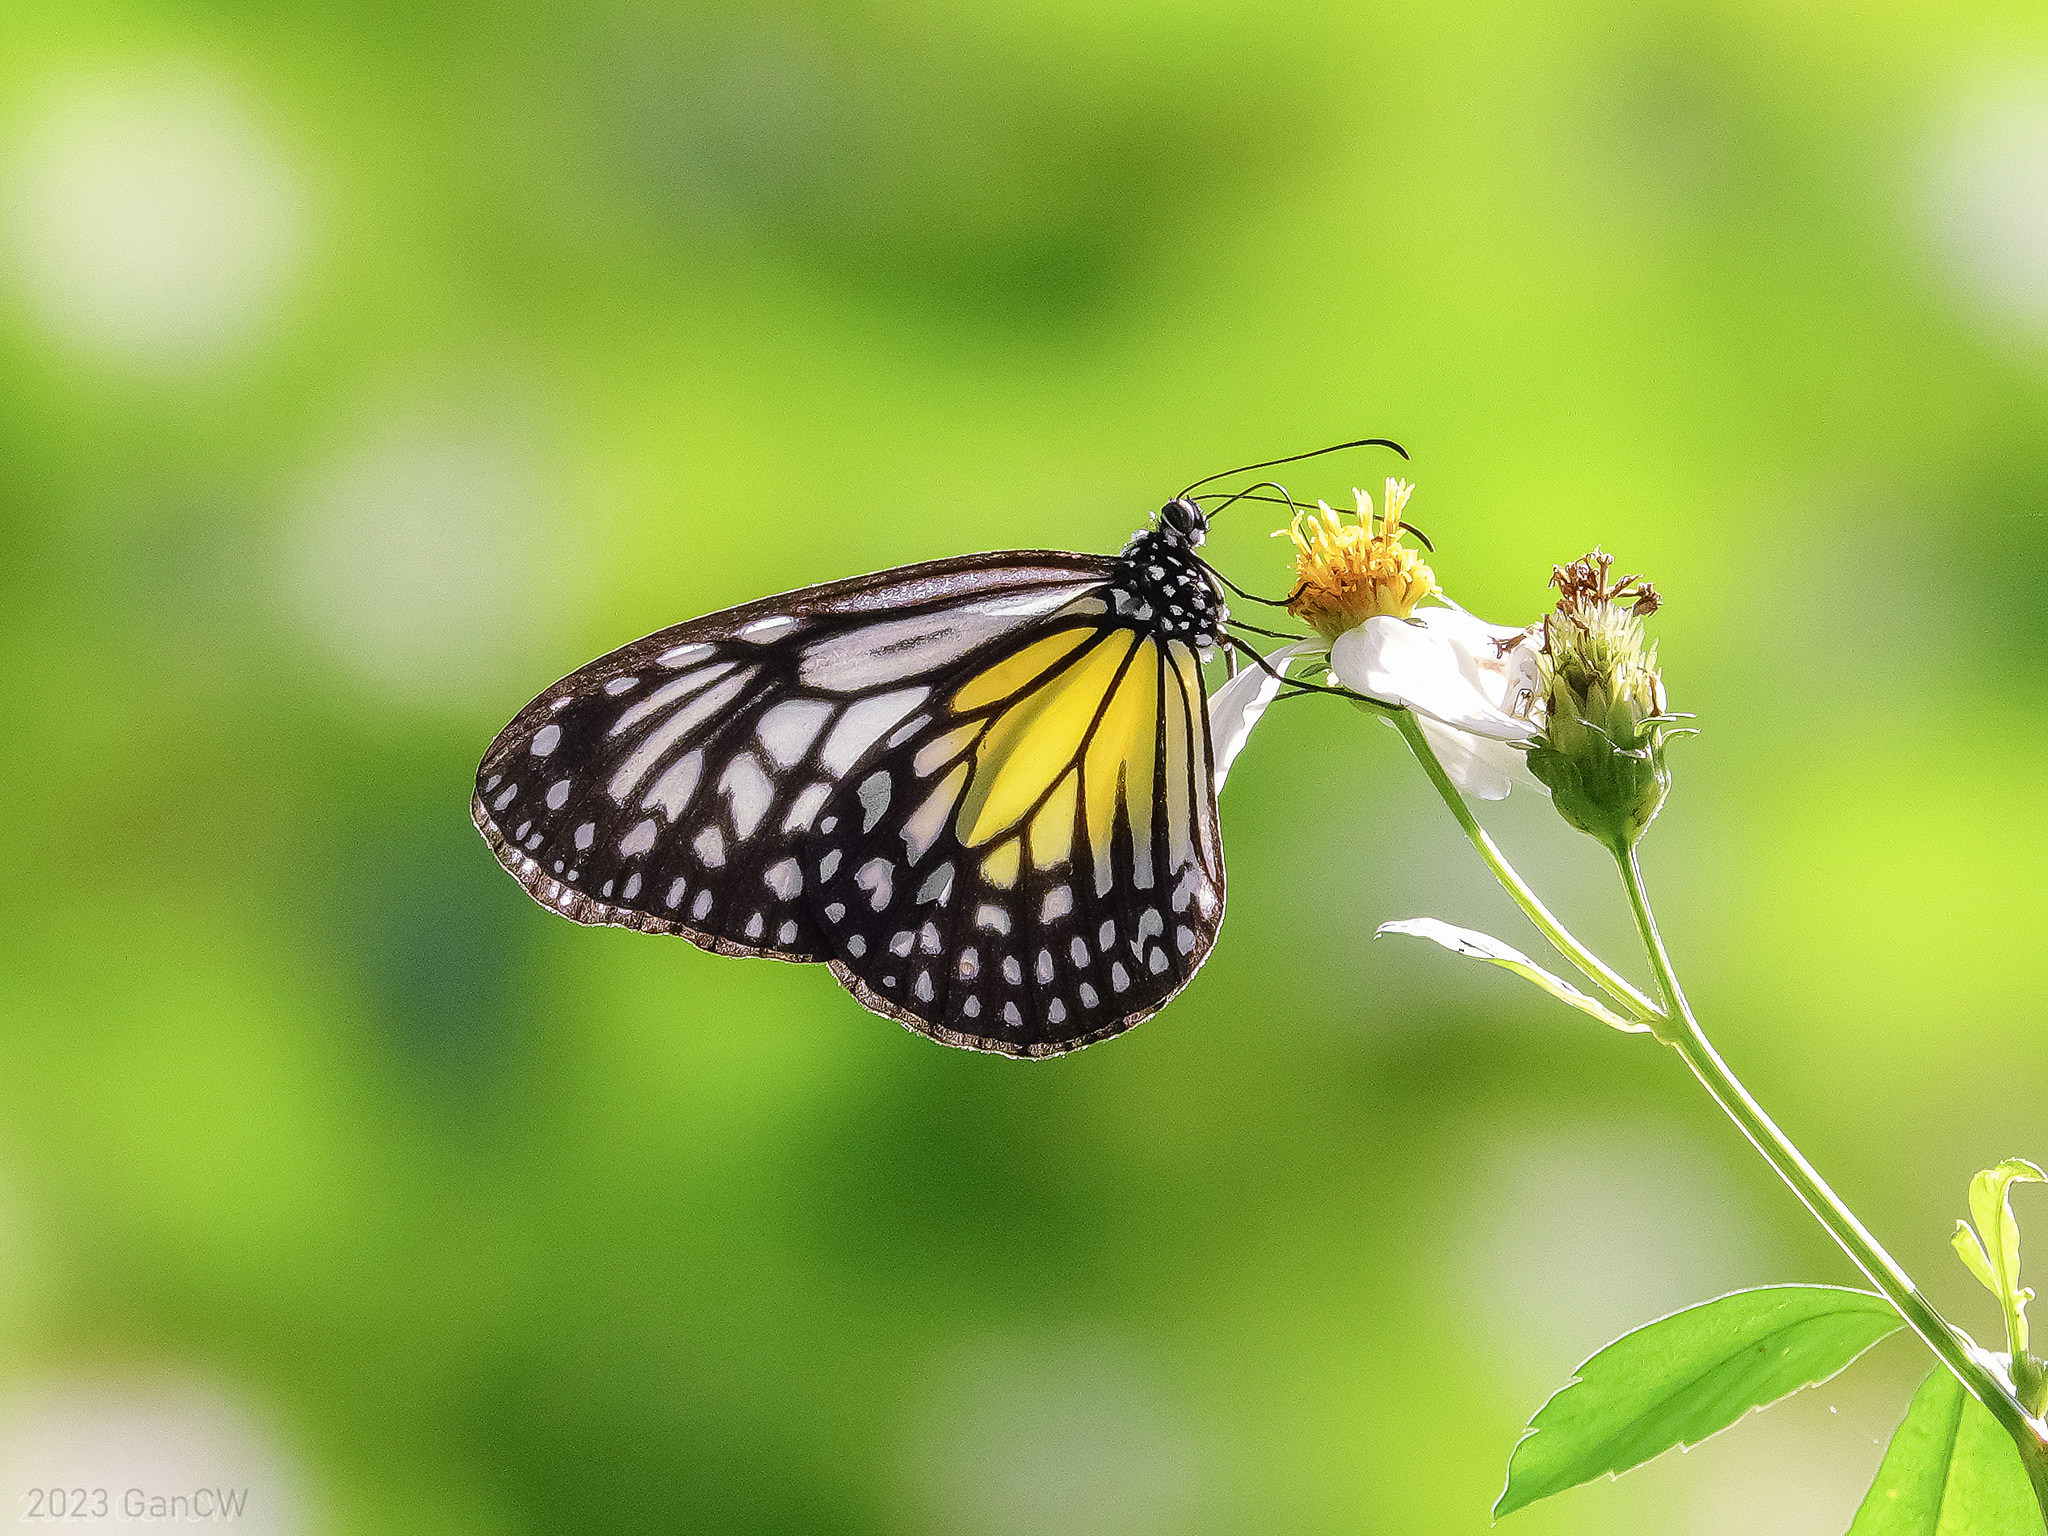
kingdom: Animalia
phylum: Arthropoda
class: Insecta
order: Lepidoptera
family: Nymphalidae
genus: Parantica
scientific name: Parantica aspasia
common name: Yellow glassy tiger
